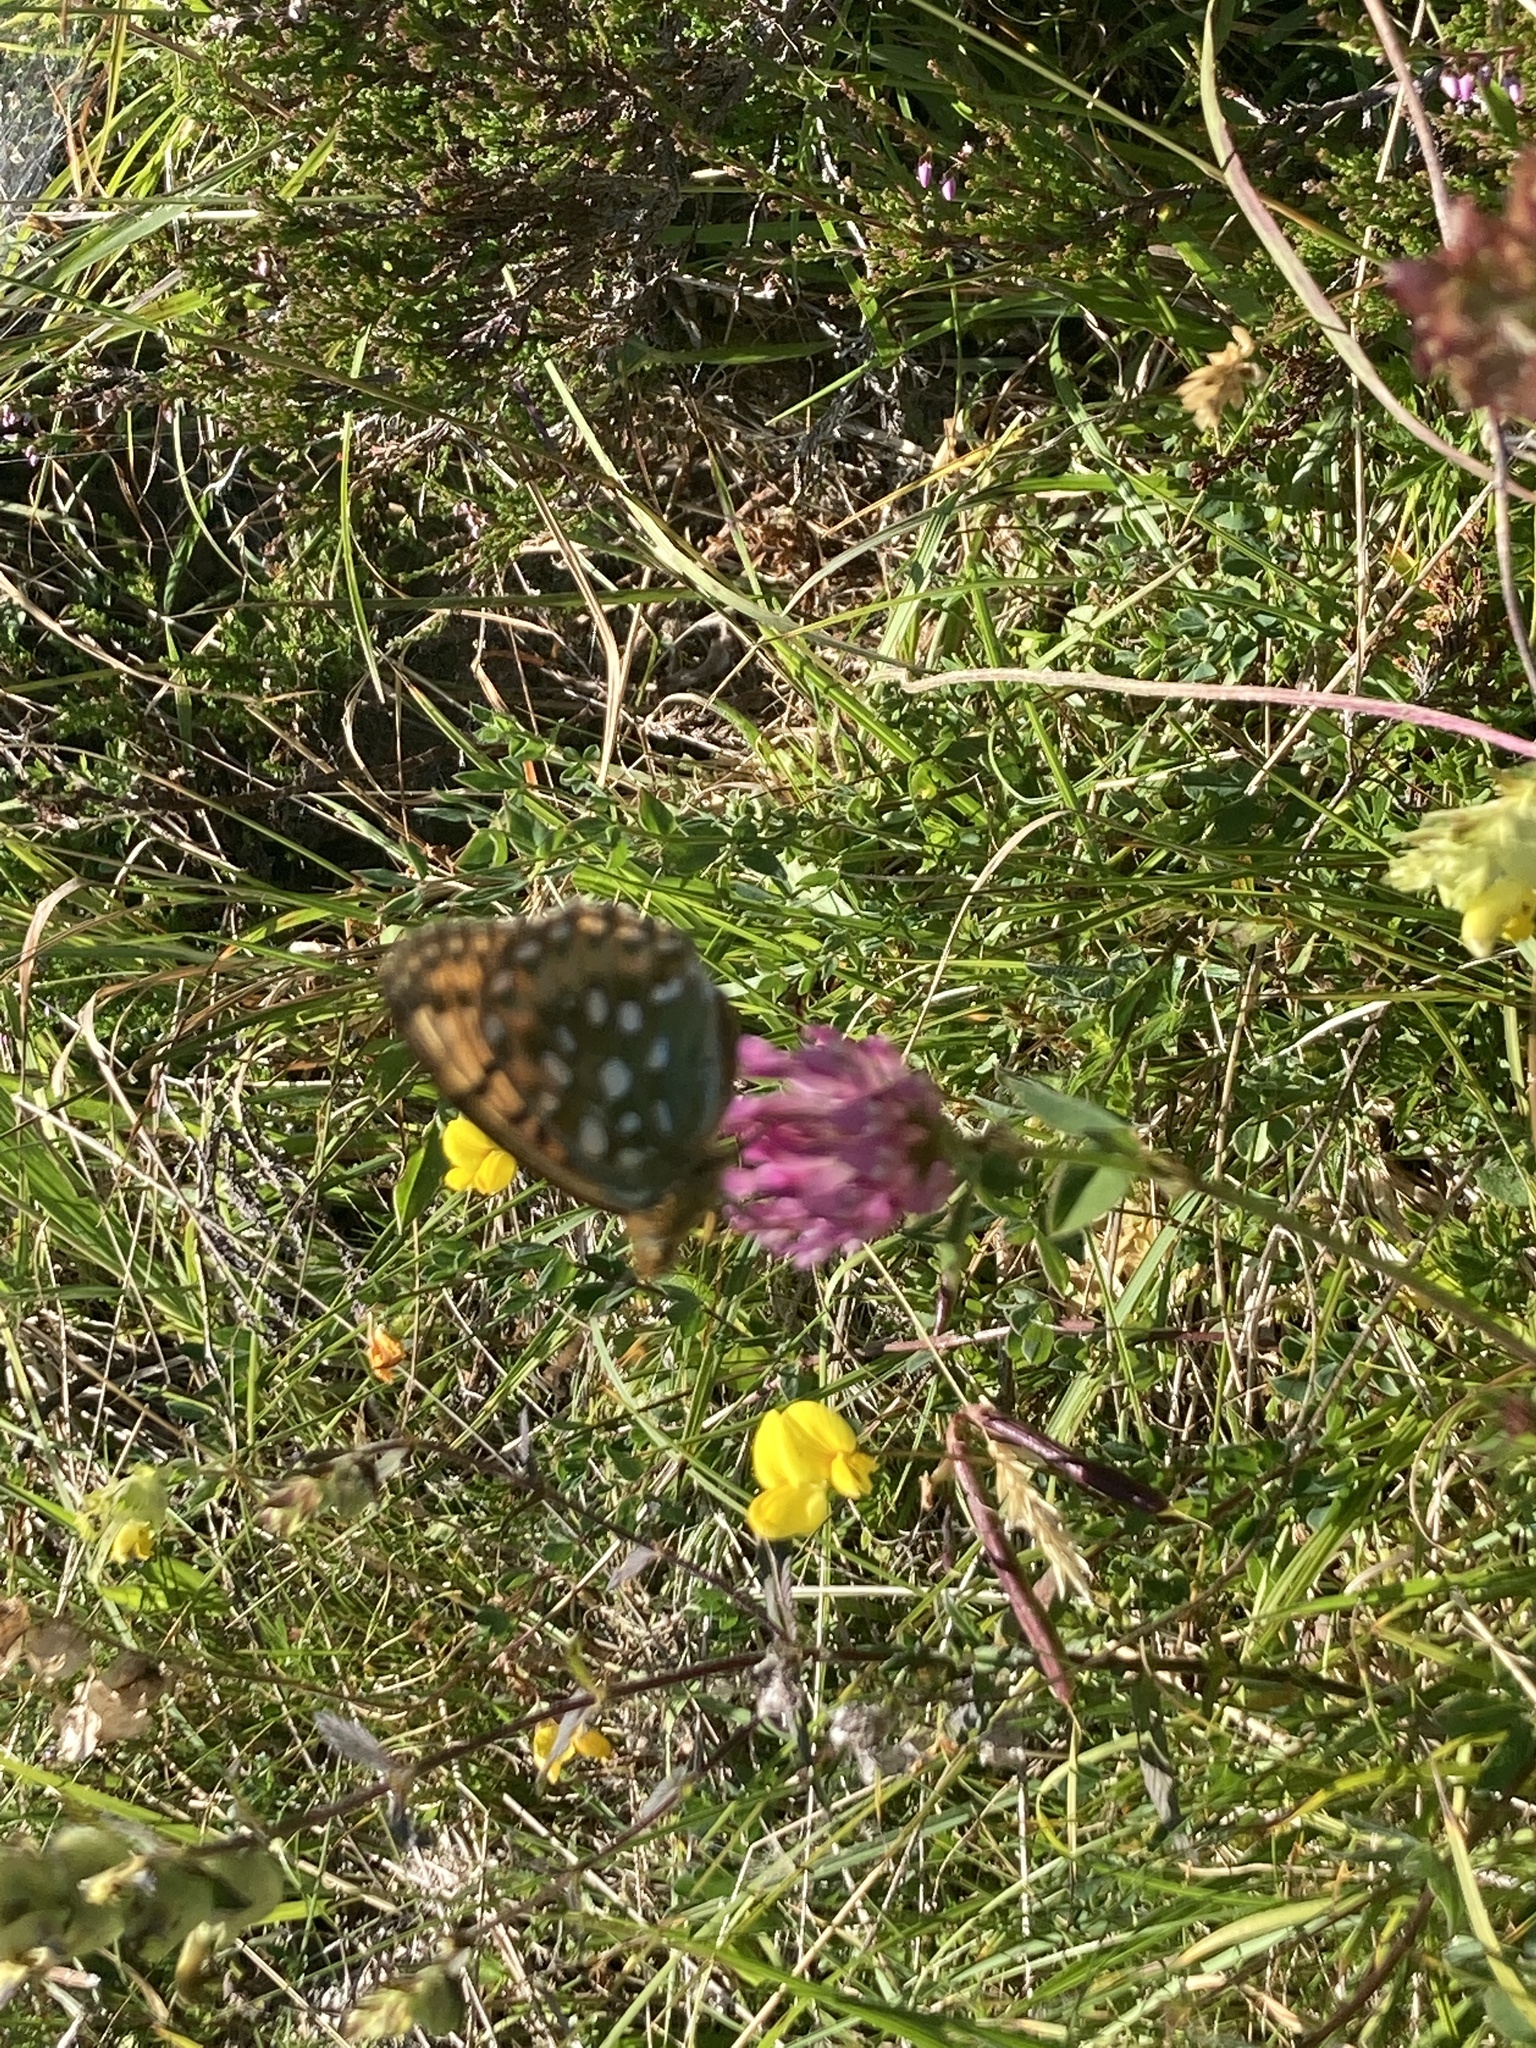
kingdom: Animalia
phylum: Arthropoda
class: Insecta
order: Lepidoptera
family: Nymphalidae
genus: Speyeria
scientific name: Speyeria aglaja
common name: Dark green fritillary
